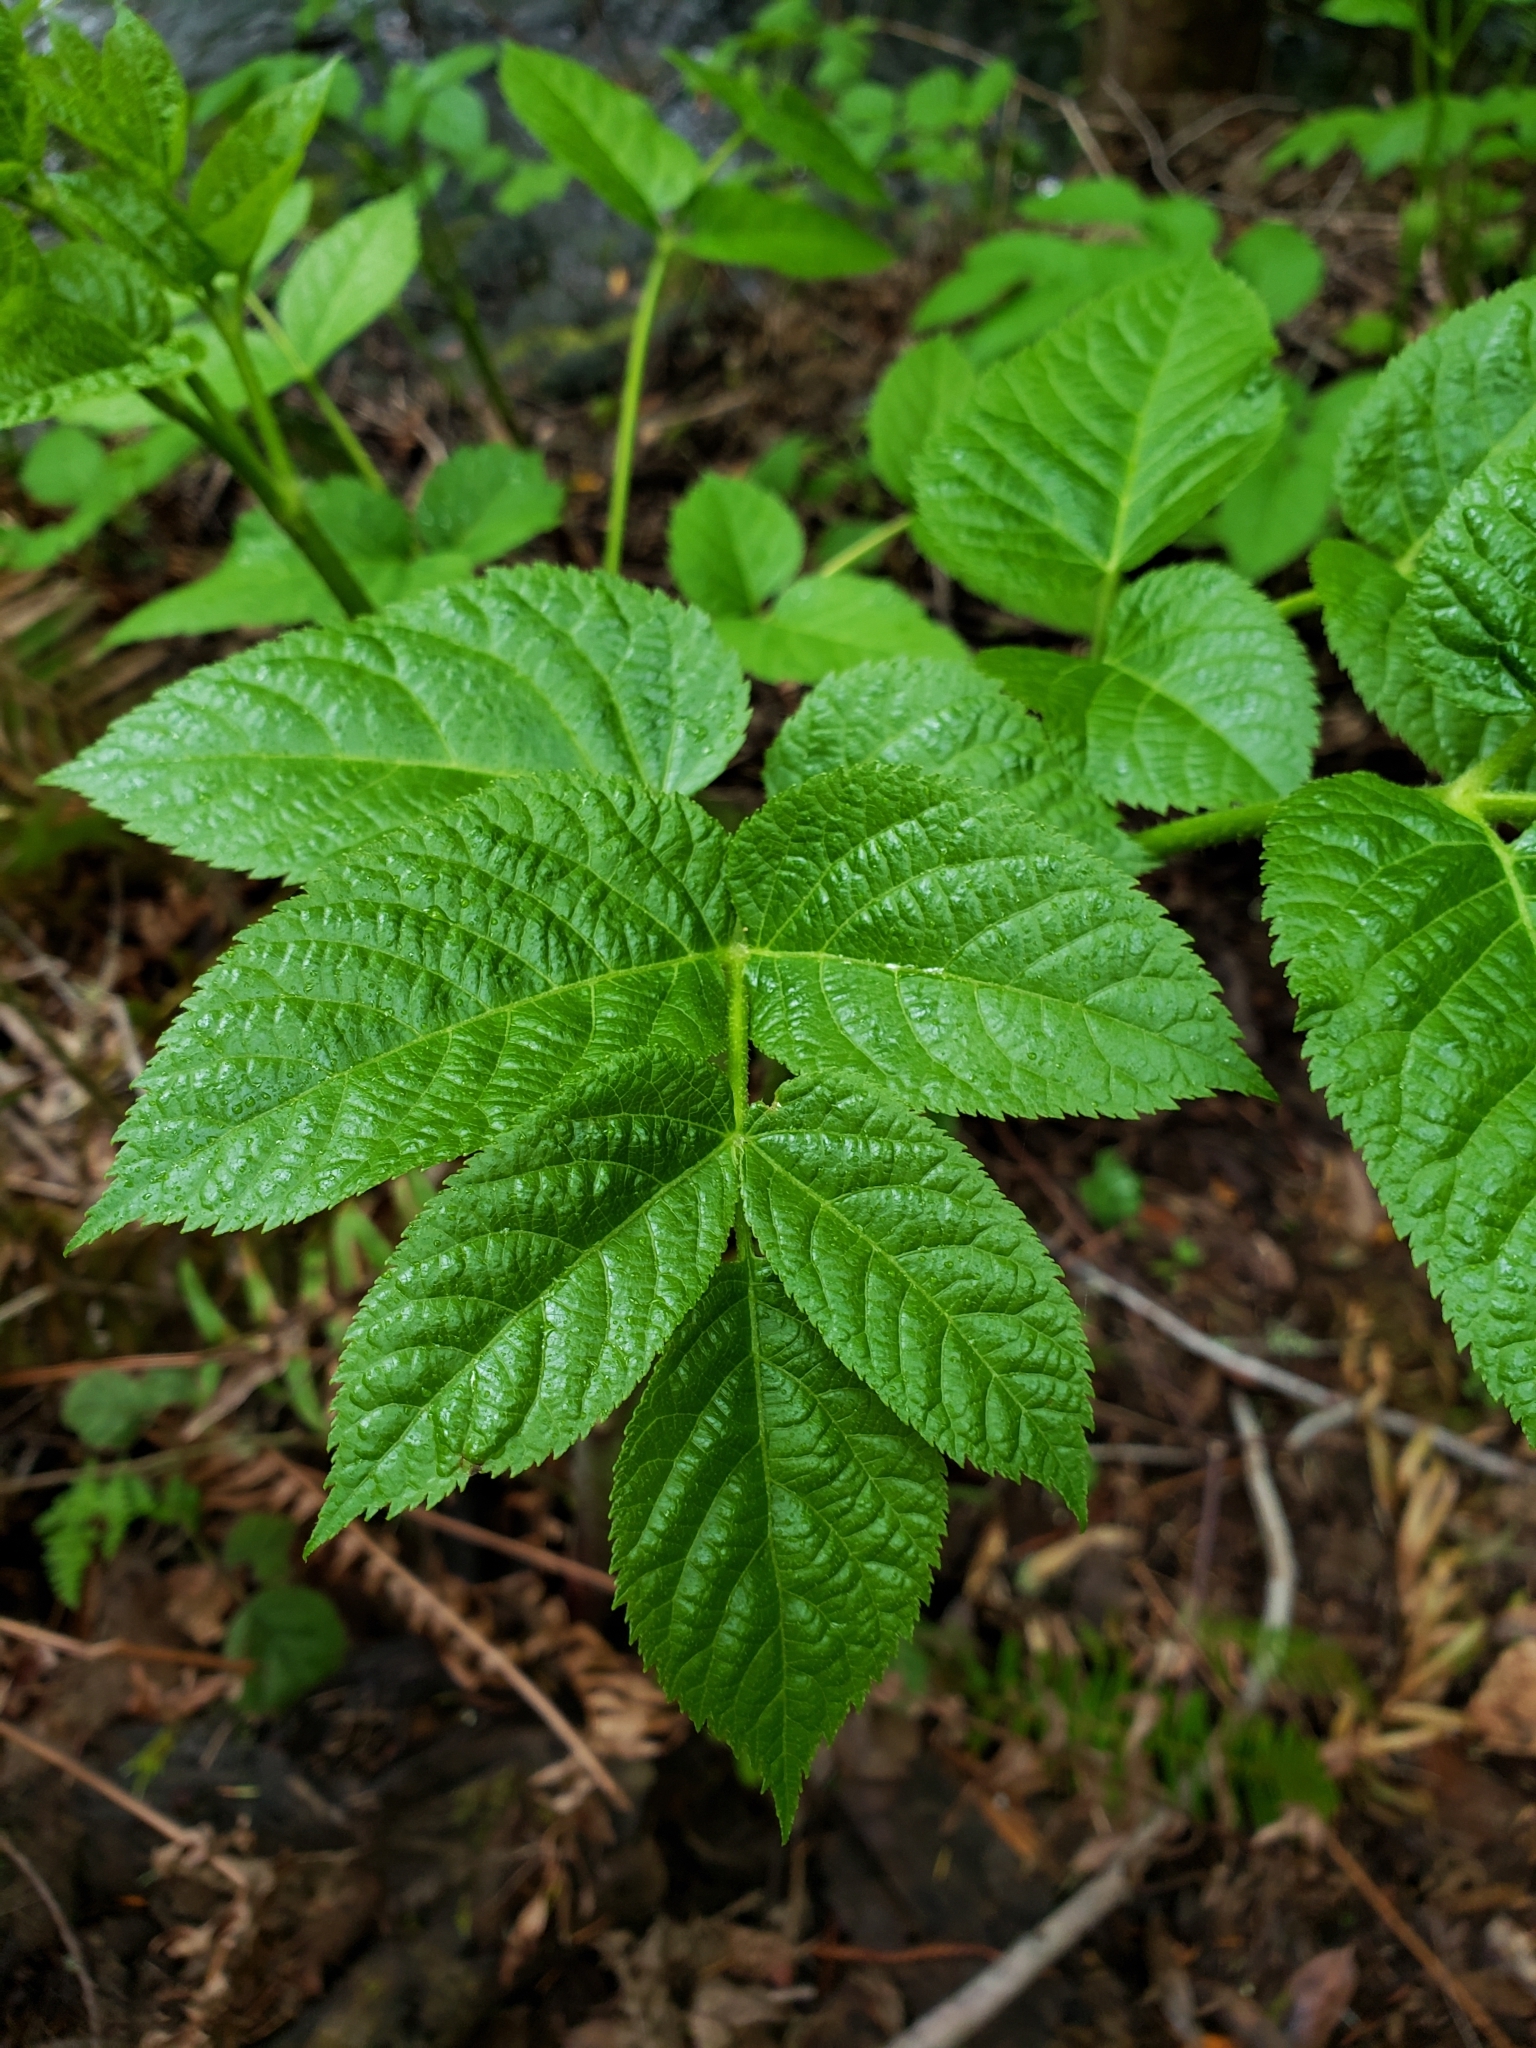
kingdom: Plantae
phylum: Tracheophyta
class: Magnoliopsida
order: Apiales
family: Araliaceae
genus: Aralia
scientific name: Aralia californica
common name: California-ginseng
